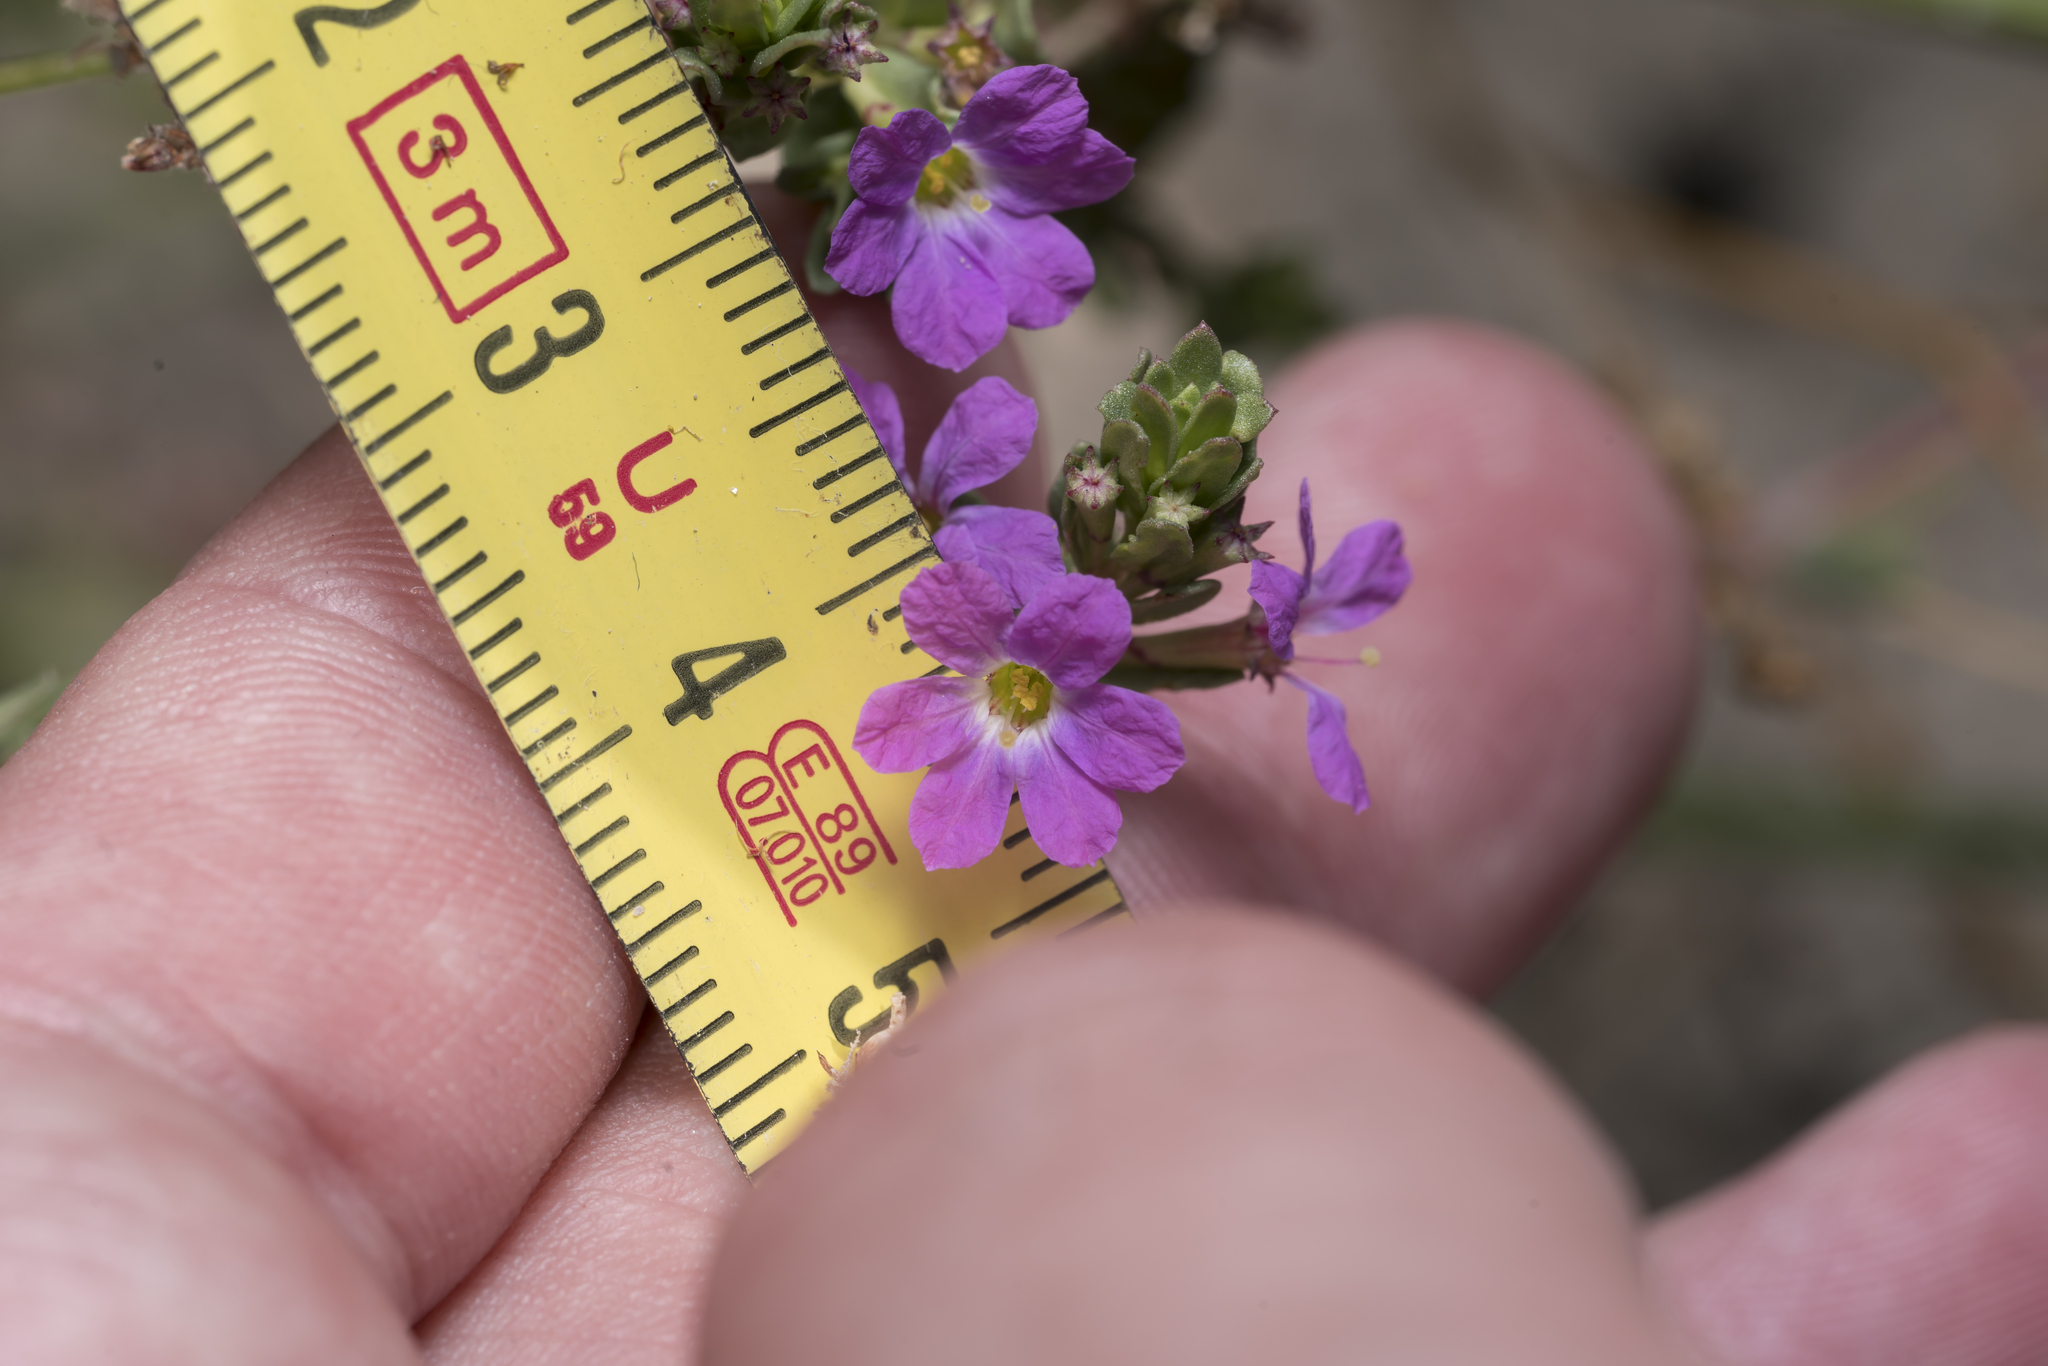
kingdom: Plantae
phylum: Tracheophyta
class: Magnoliopsida
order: Myrtales
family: Lythraceae
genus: Lythrum
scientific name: Lythrum junceum
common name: False grass-poly
